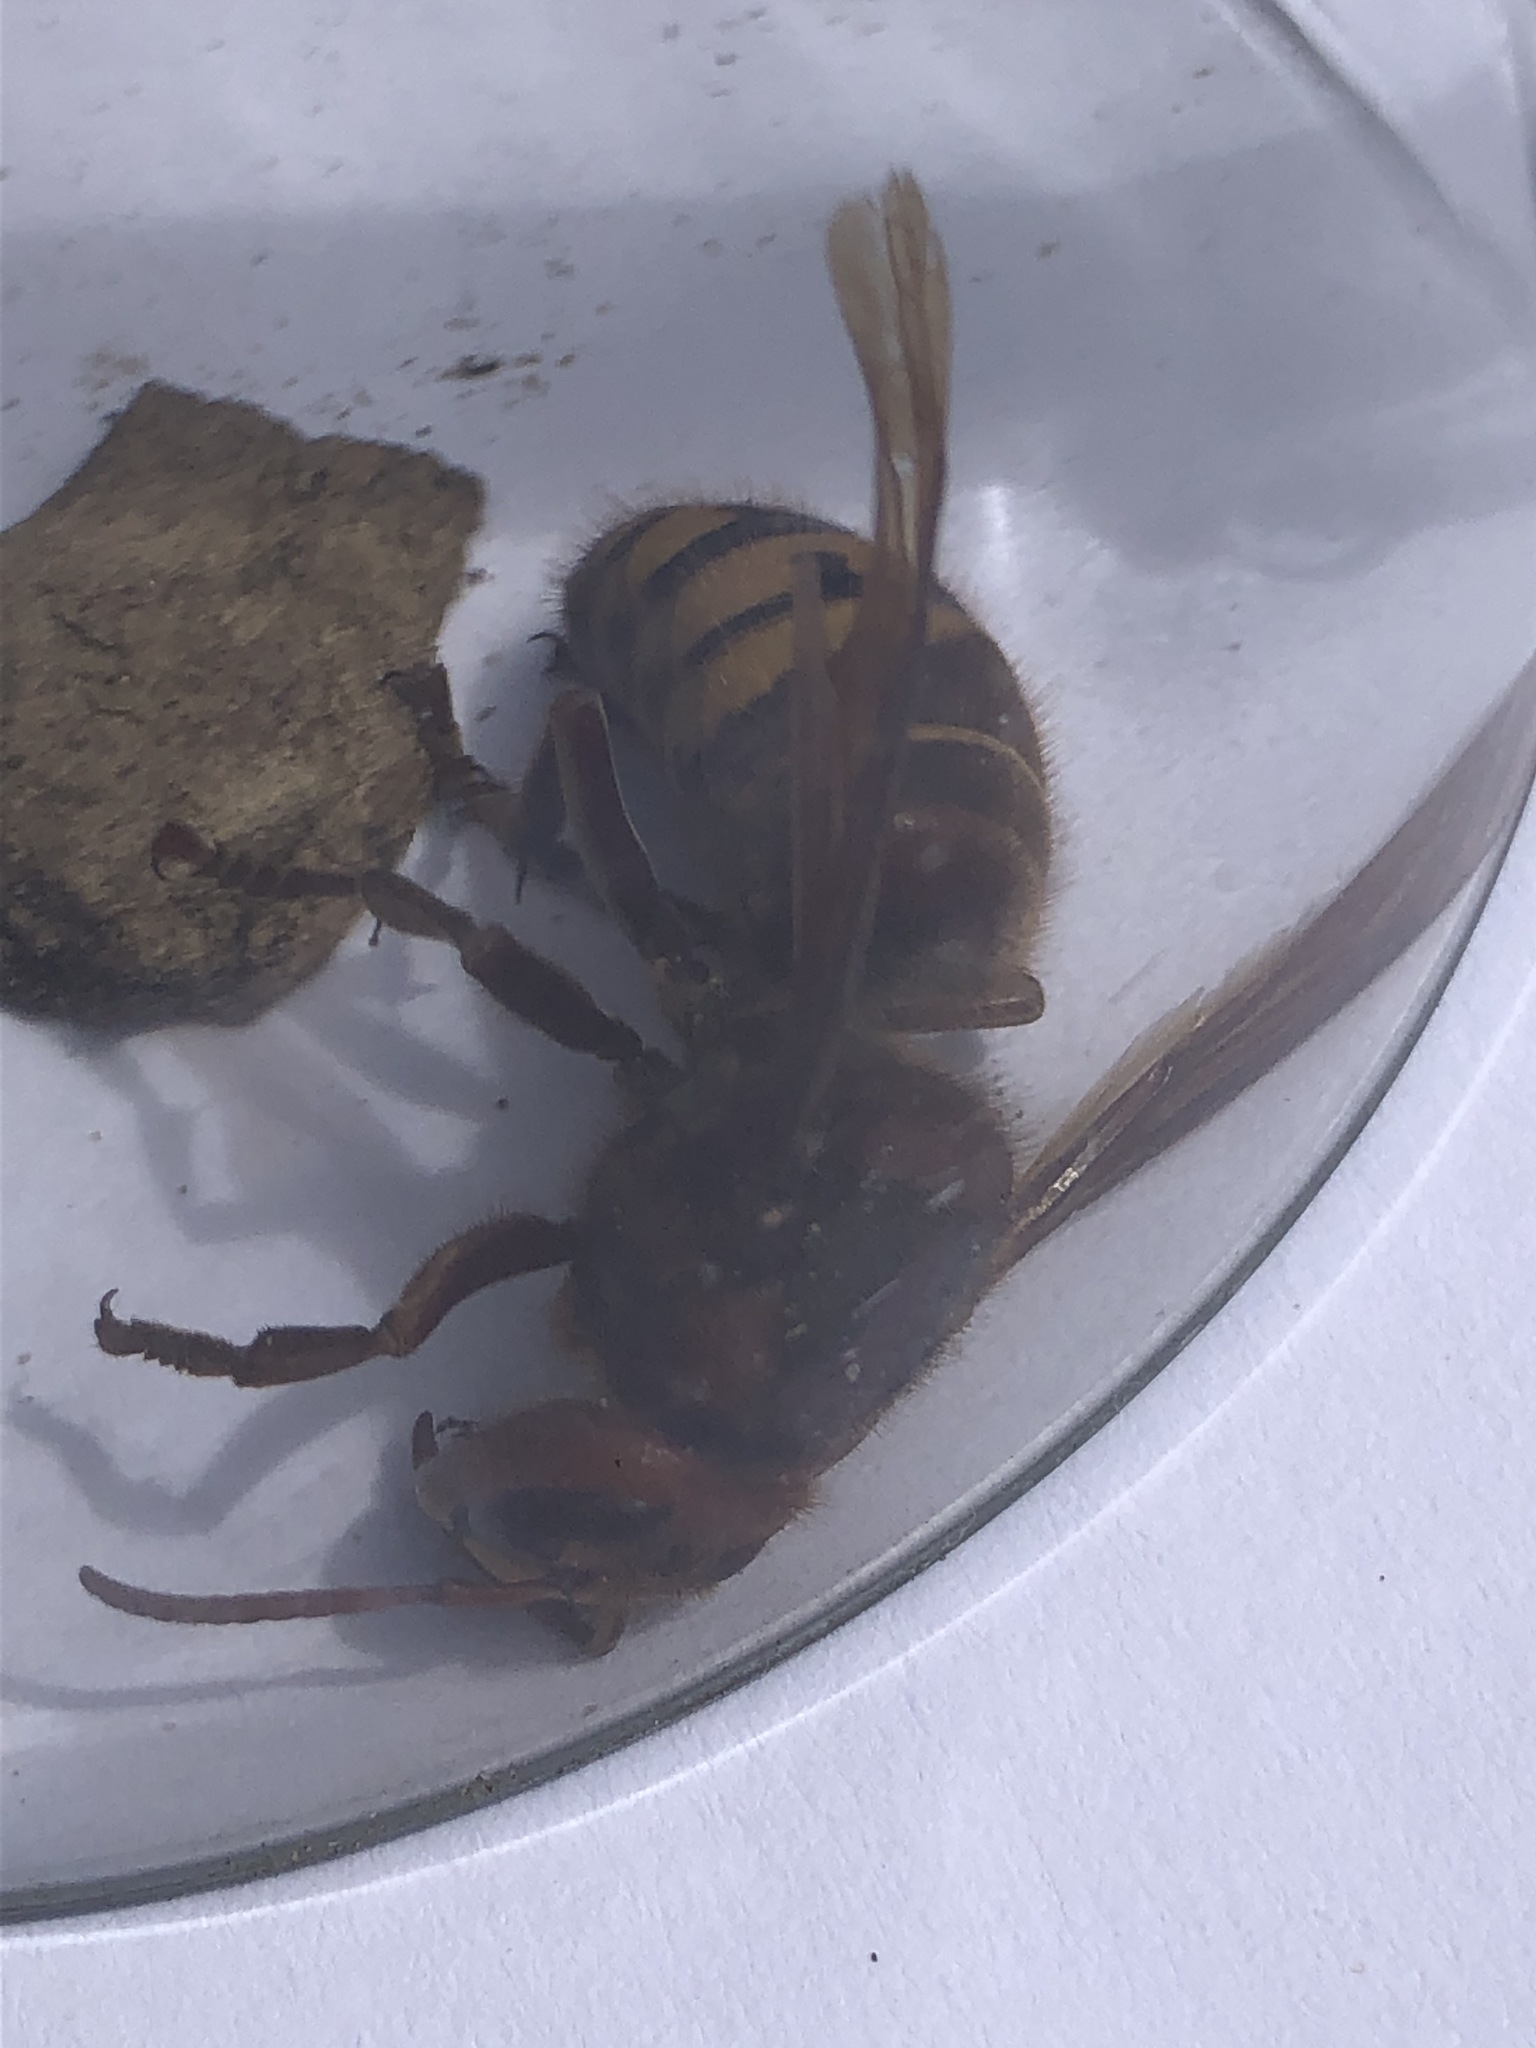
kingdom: Animalia
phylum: Arthropoda
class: Insecta
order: Hymenoptera
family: Vespidae
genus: Vespa
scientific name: Vespa crabro
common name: Hornet
